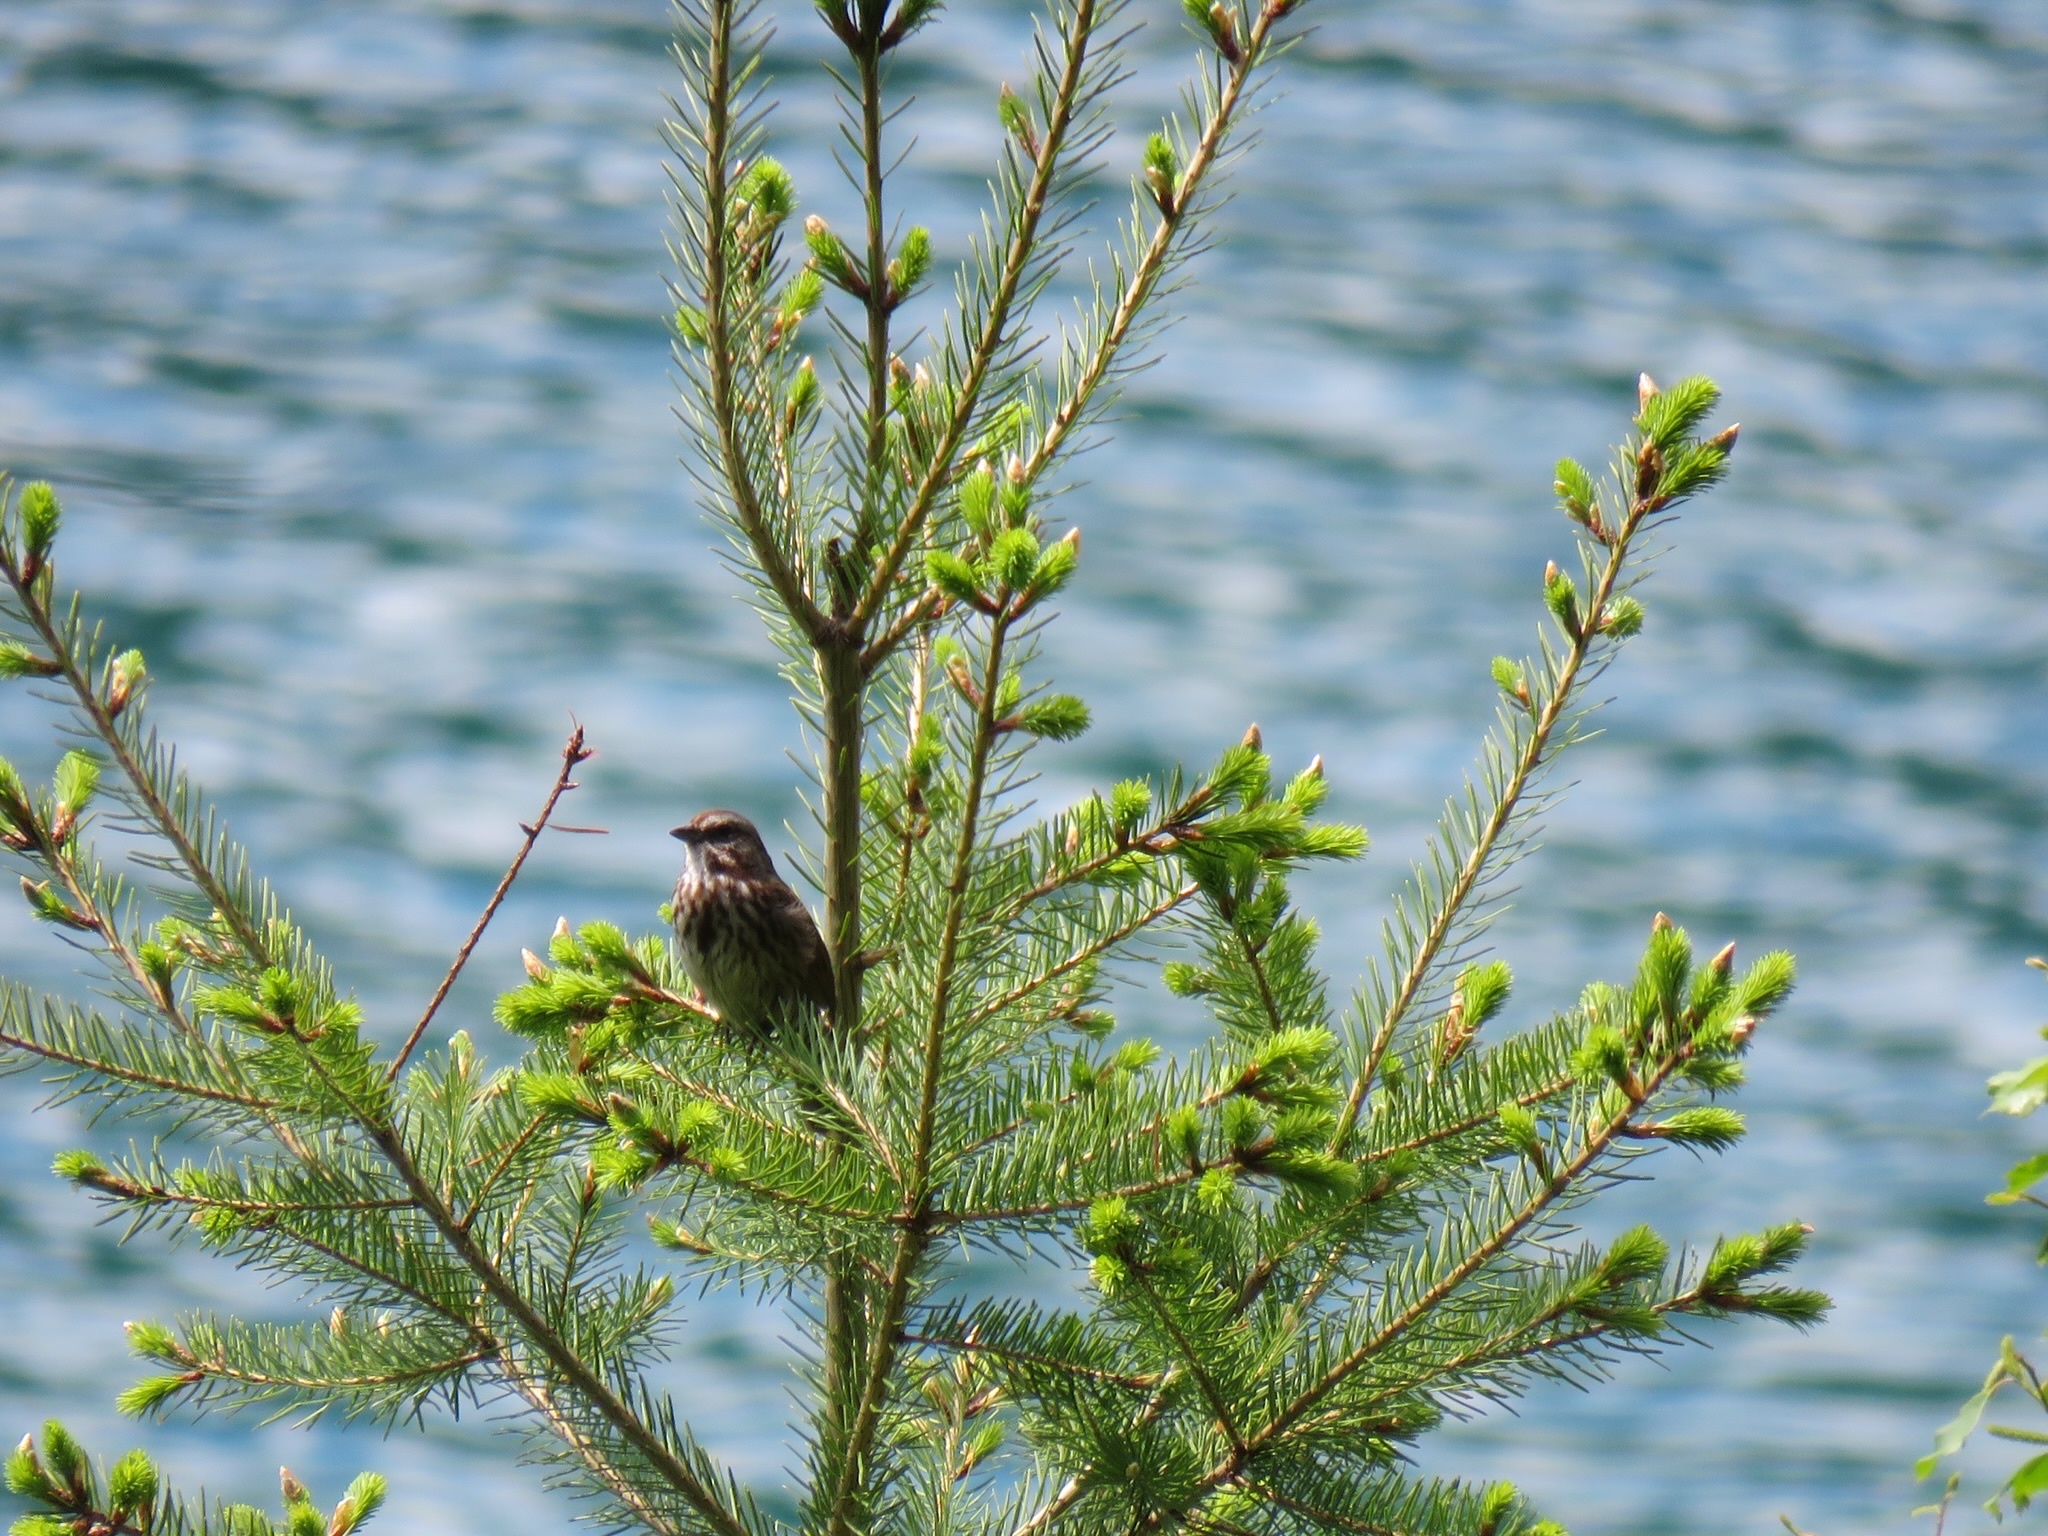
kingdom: Animalia
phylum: Chordata
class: Aves
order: Passeriformes
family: Passerellidae
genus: Melospiza
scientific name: Melospiza melodia
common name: Song sparrow
